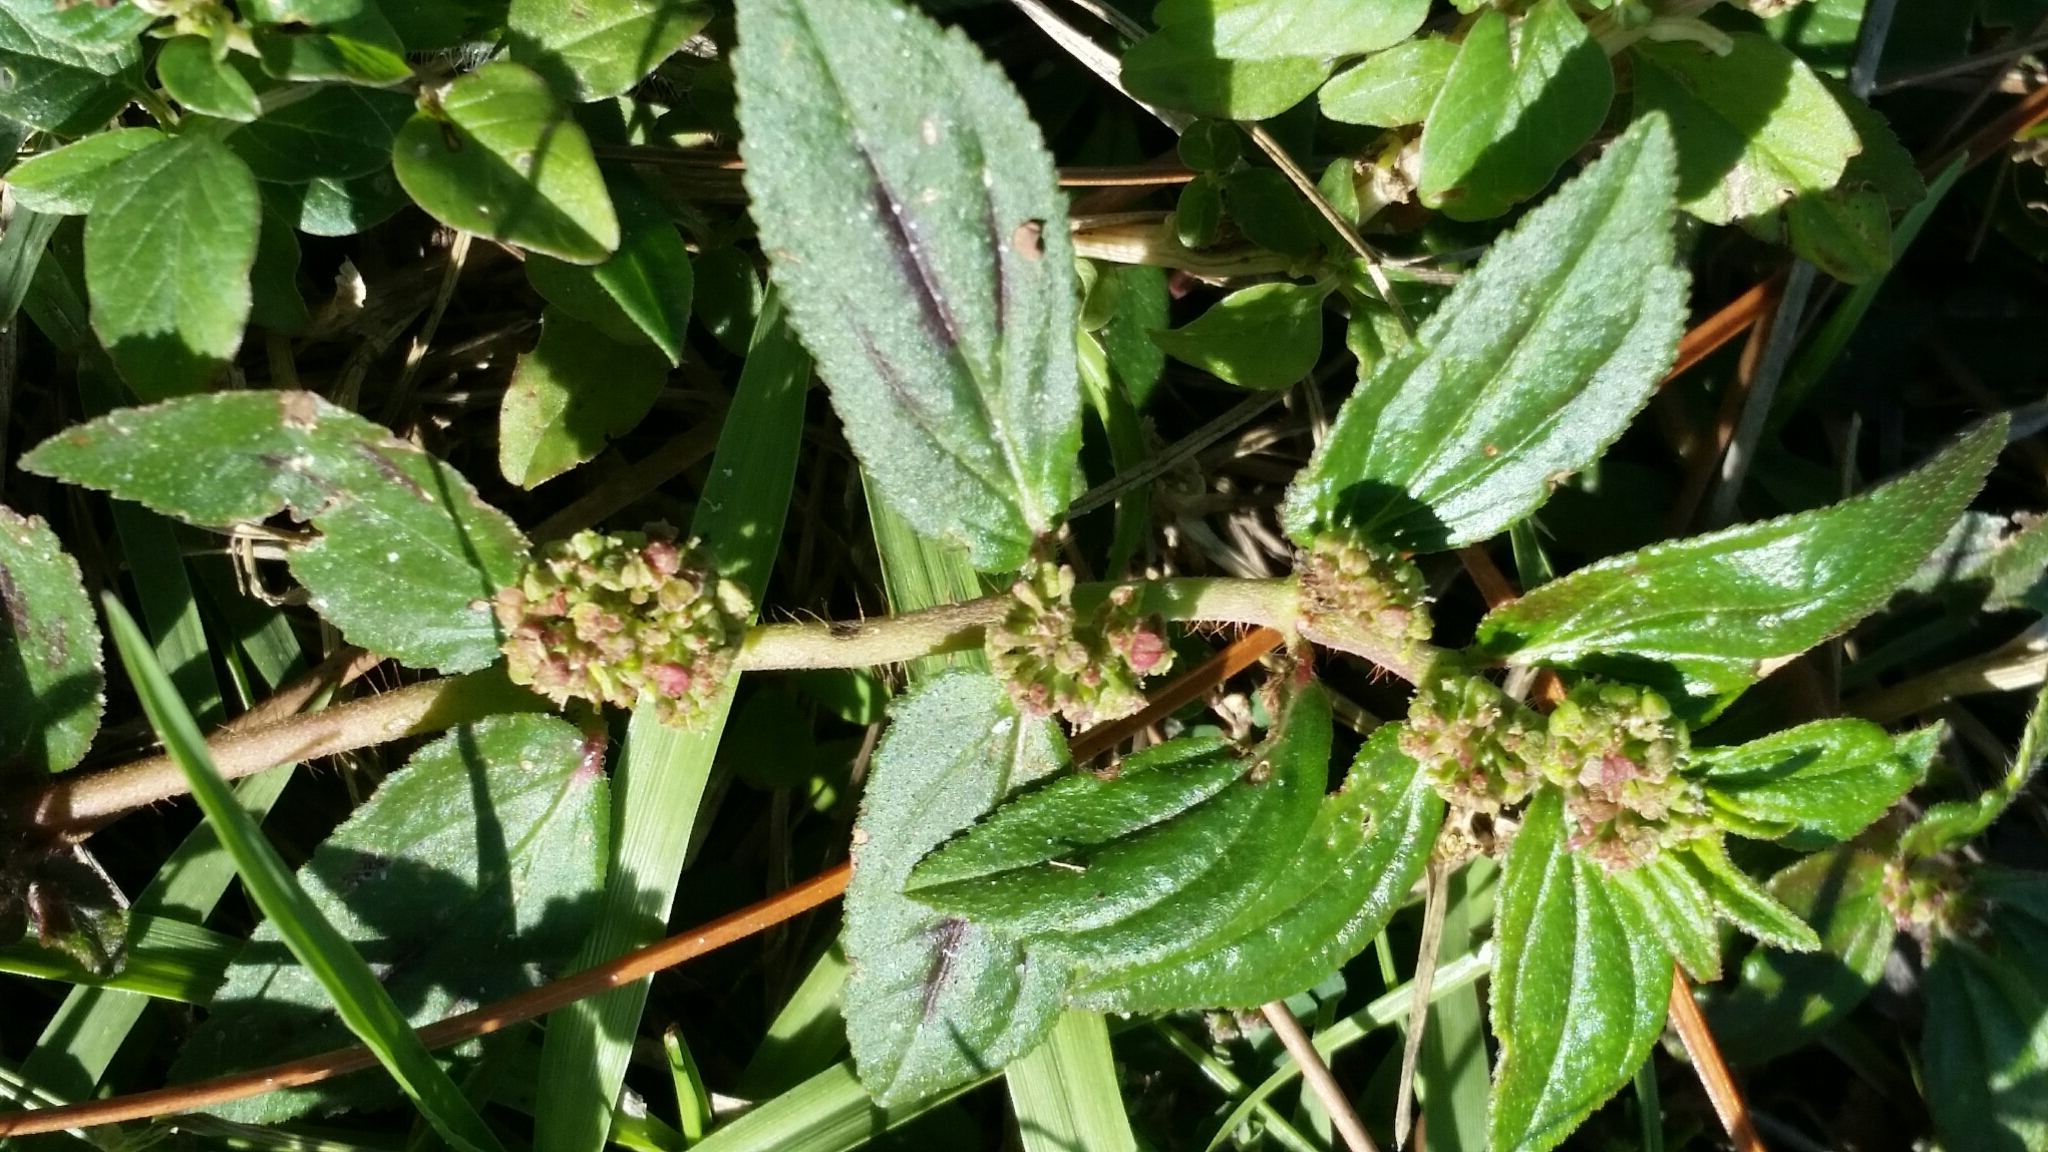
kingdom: Plantae
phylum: Tracheophyta
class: Magnoliopsida
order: Malpighiales
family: Euphorbiaceae
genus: Euphorbia
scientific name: Euphorbia hirta
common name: Pillpod sandmat
